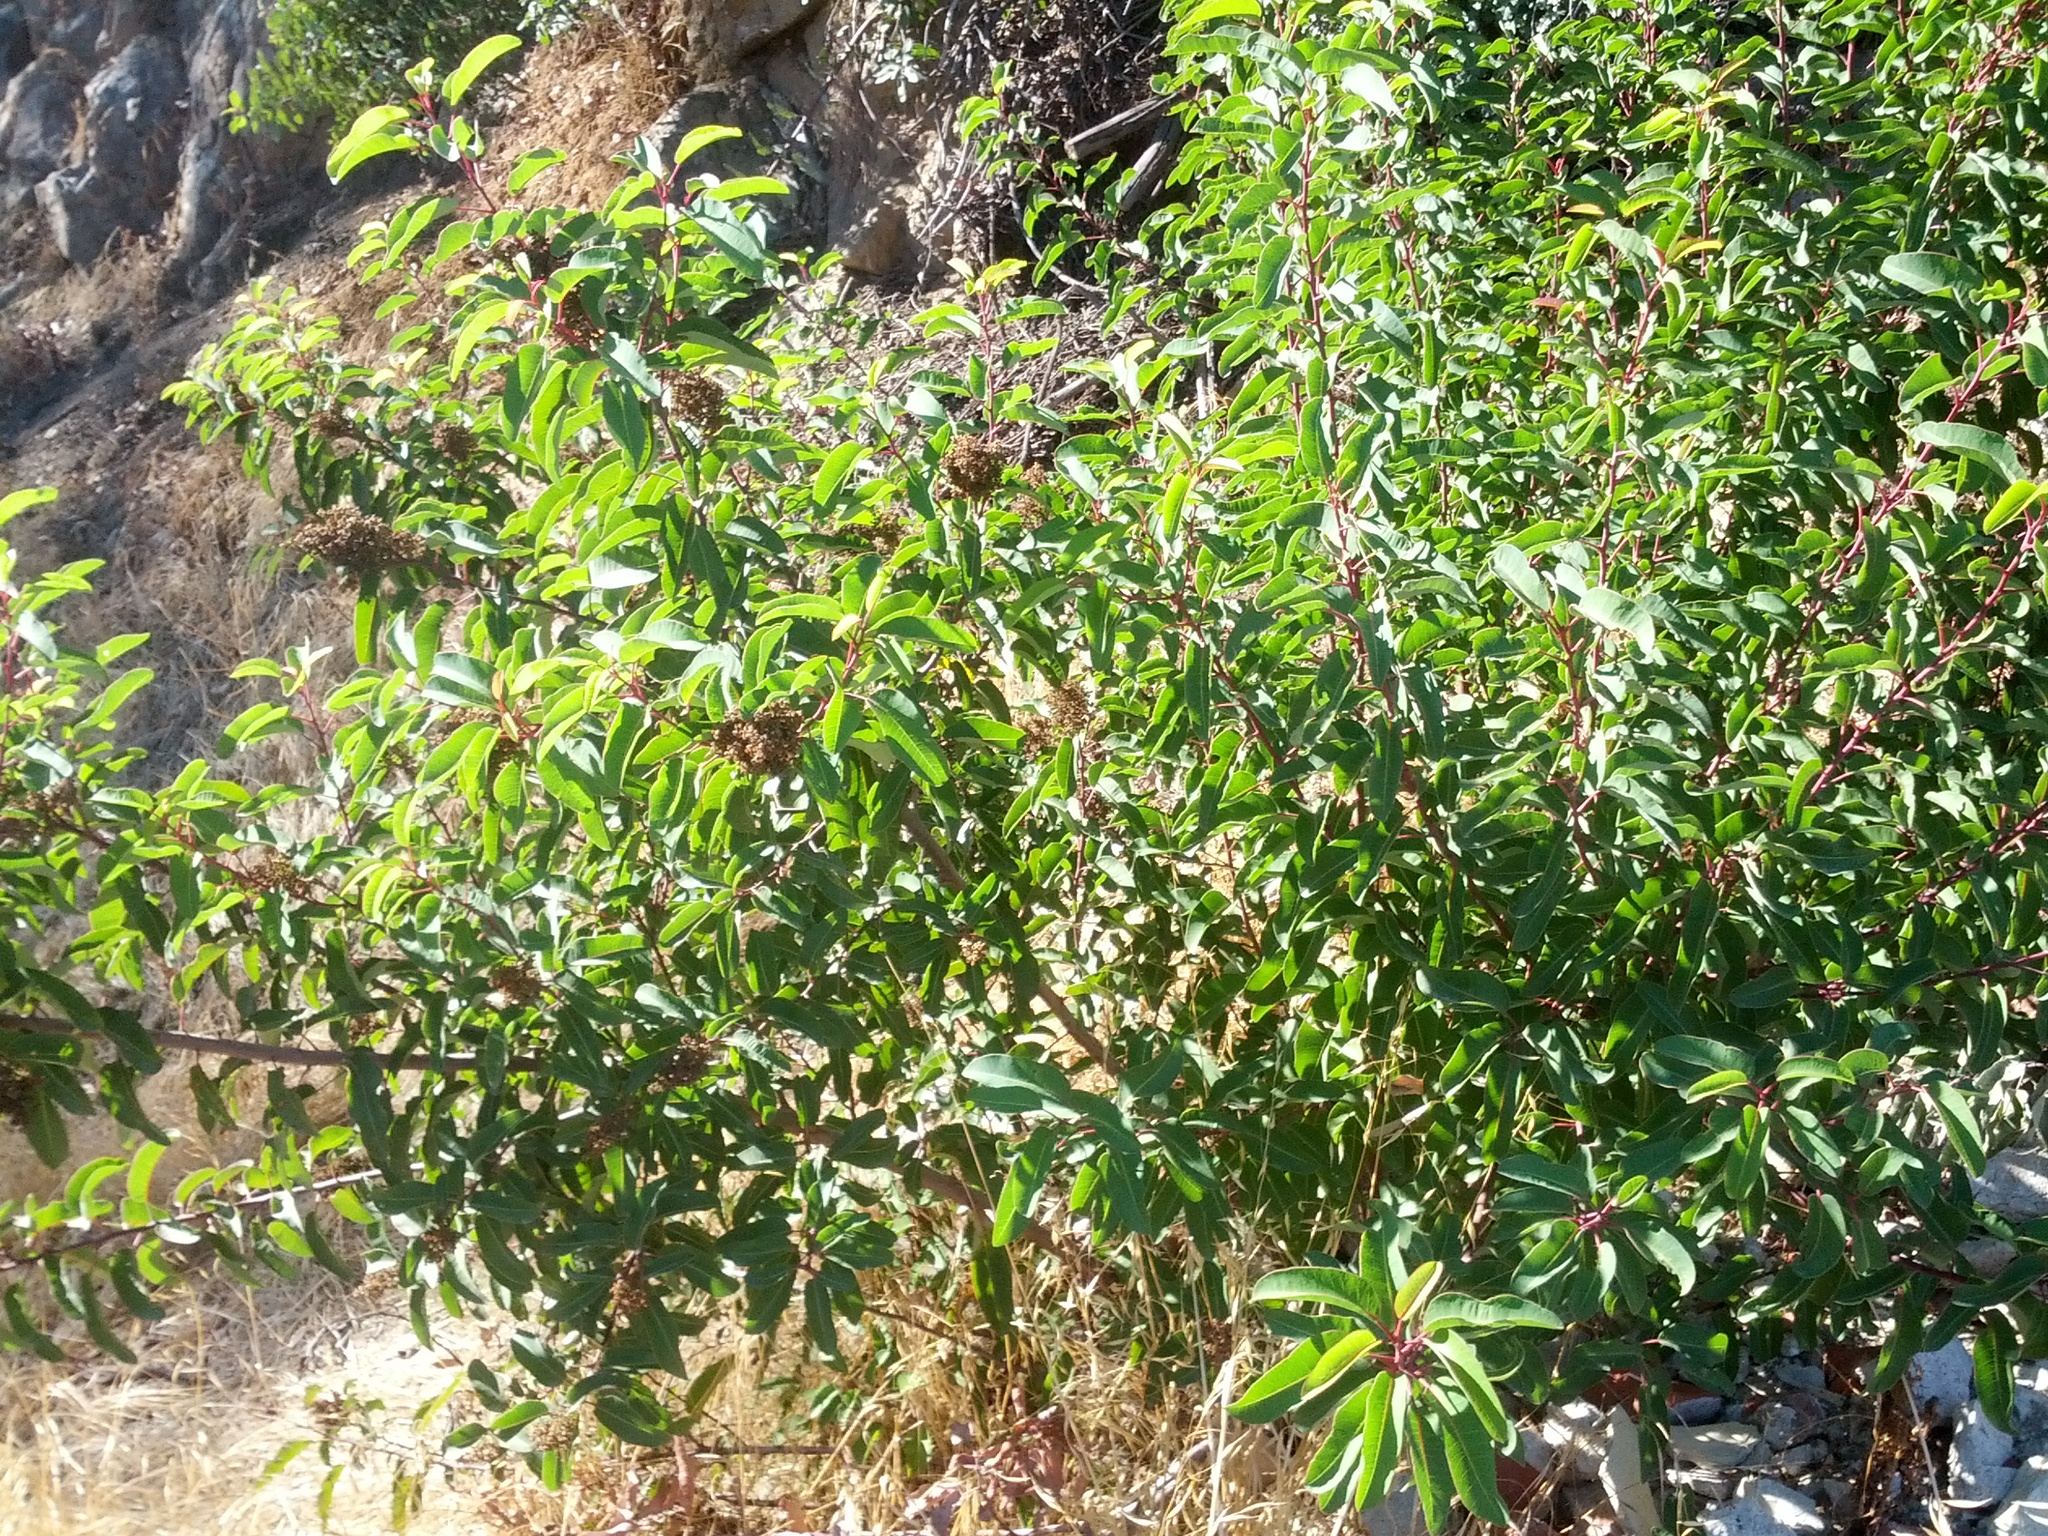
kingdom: Plantae
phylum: Tracheophyta
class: Magnoliopsida
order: Sapindales
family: Anacardiaceae
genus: Malosma
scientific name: Malosma laurina
